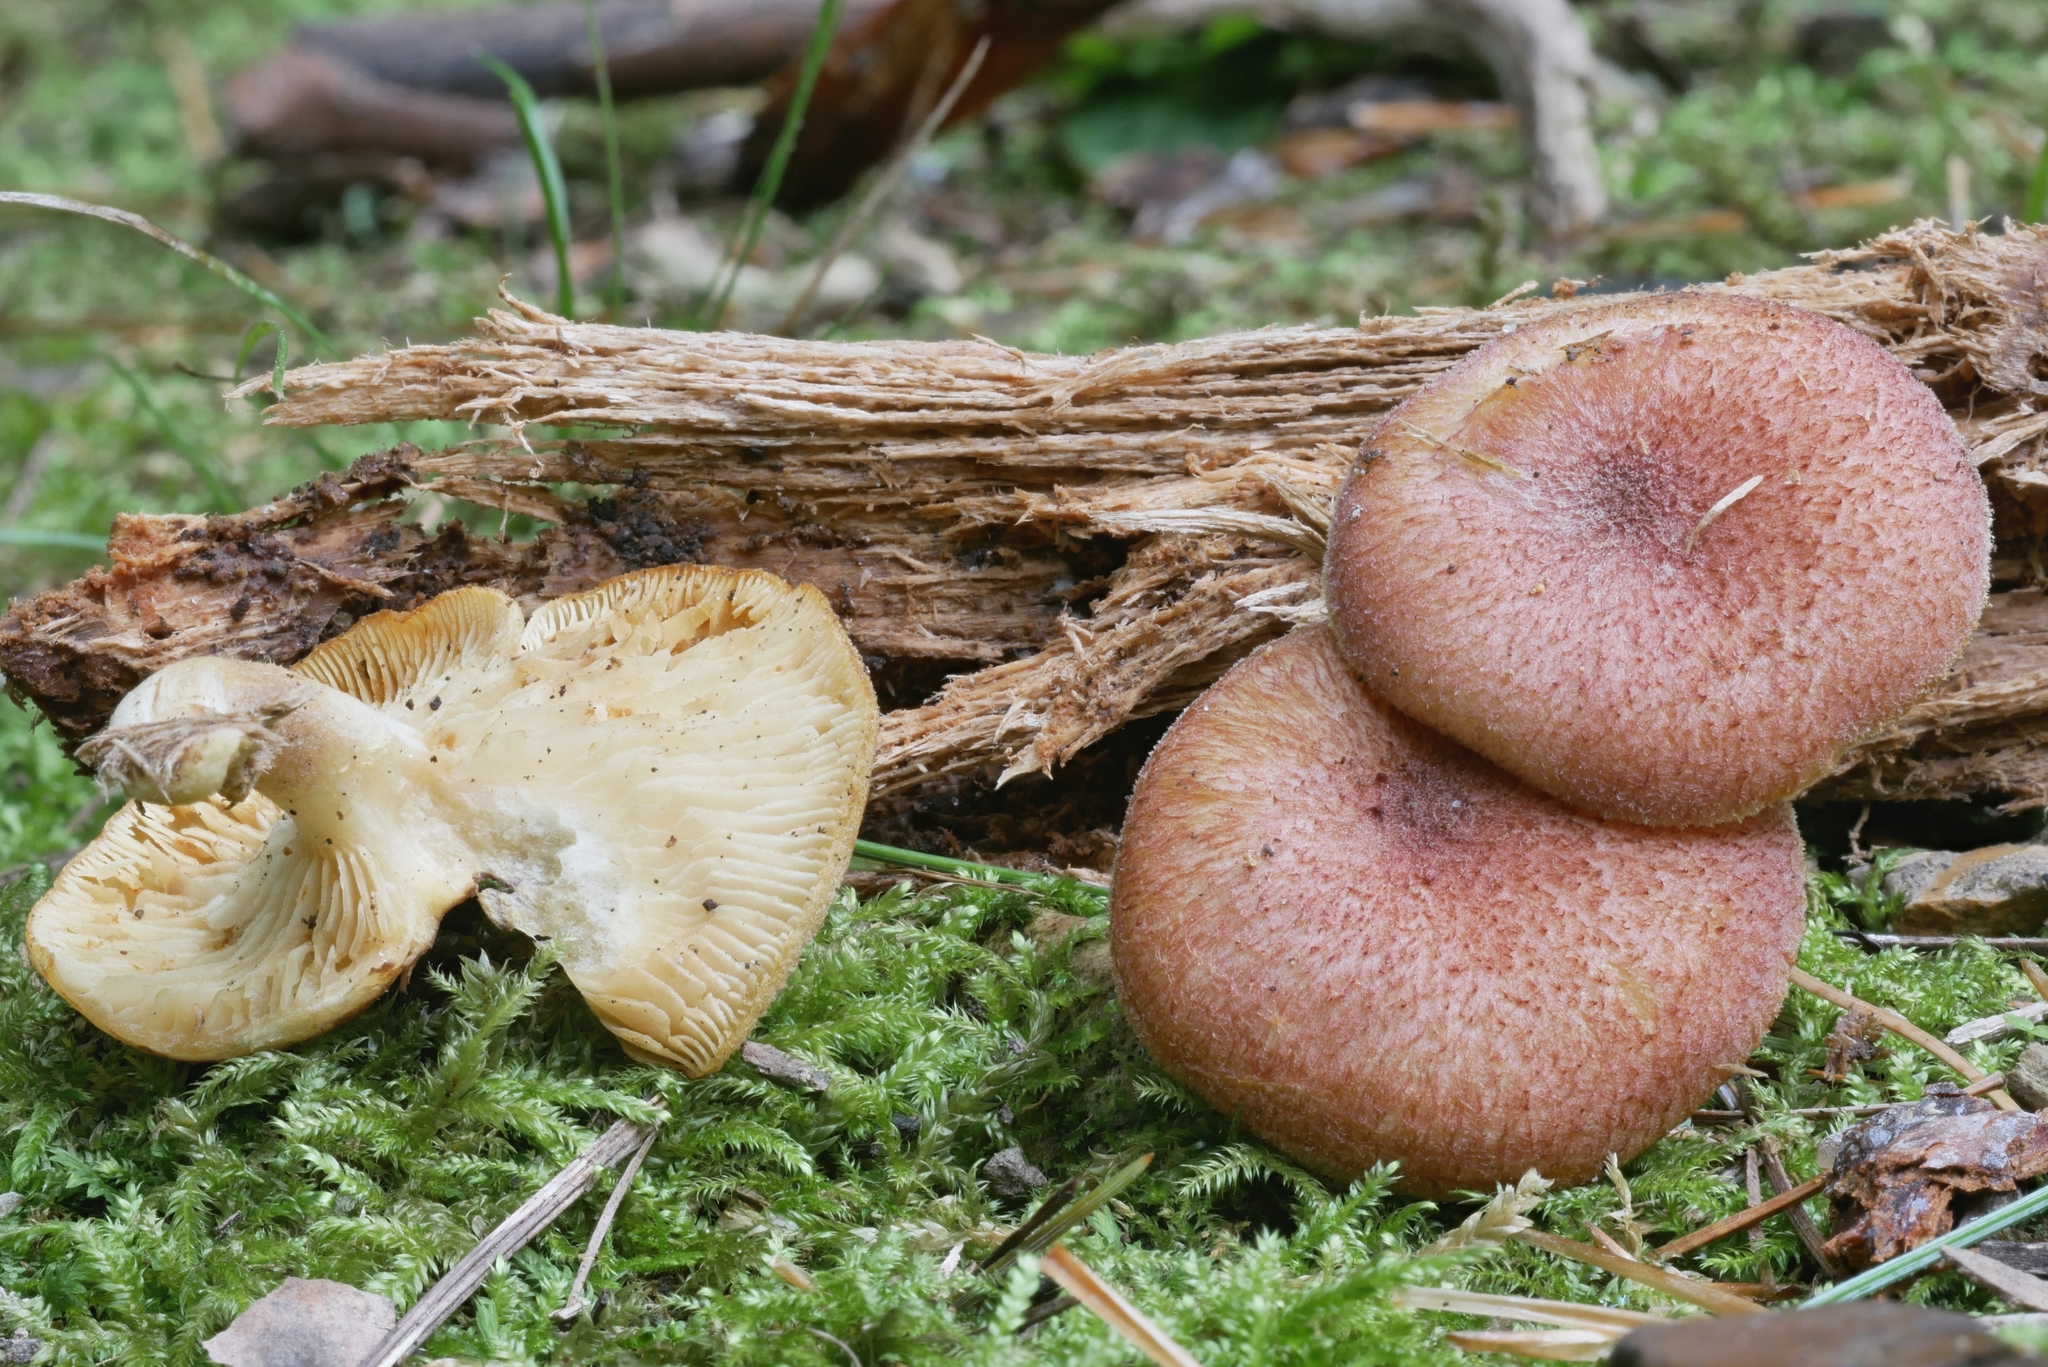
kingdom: Fungi
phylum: Basidiomycota
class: Agaricomycetes
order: Agaricales
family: Tricholomataceae
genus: Tricholomopsis
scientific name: Tricholomopsis flammula
